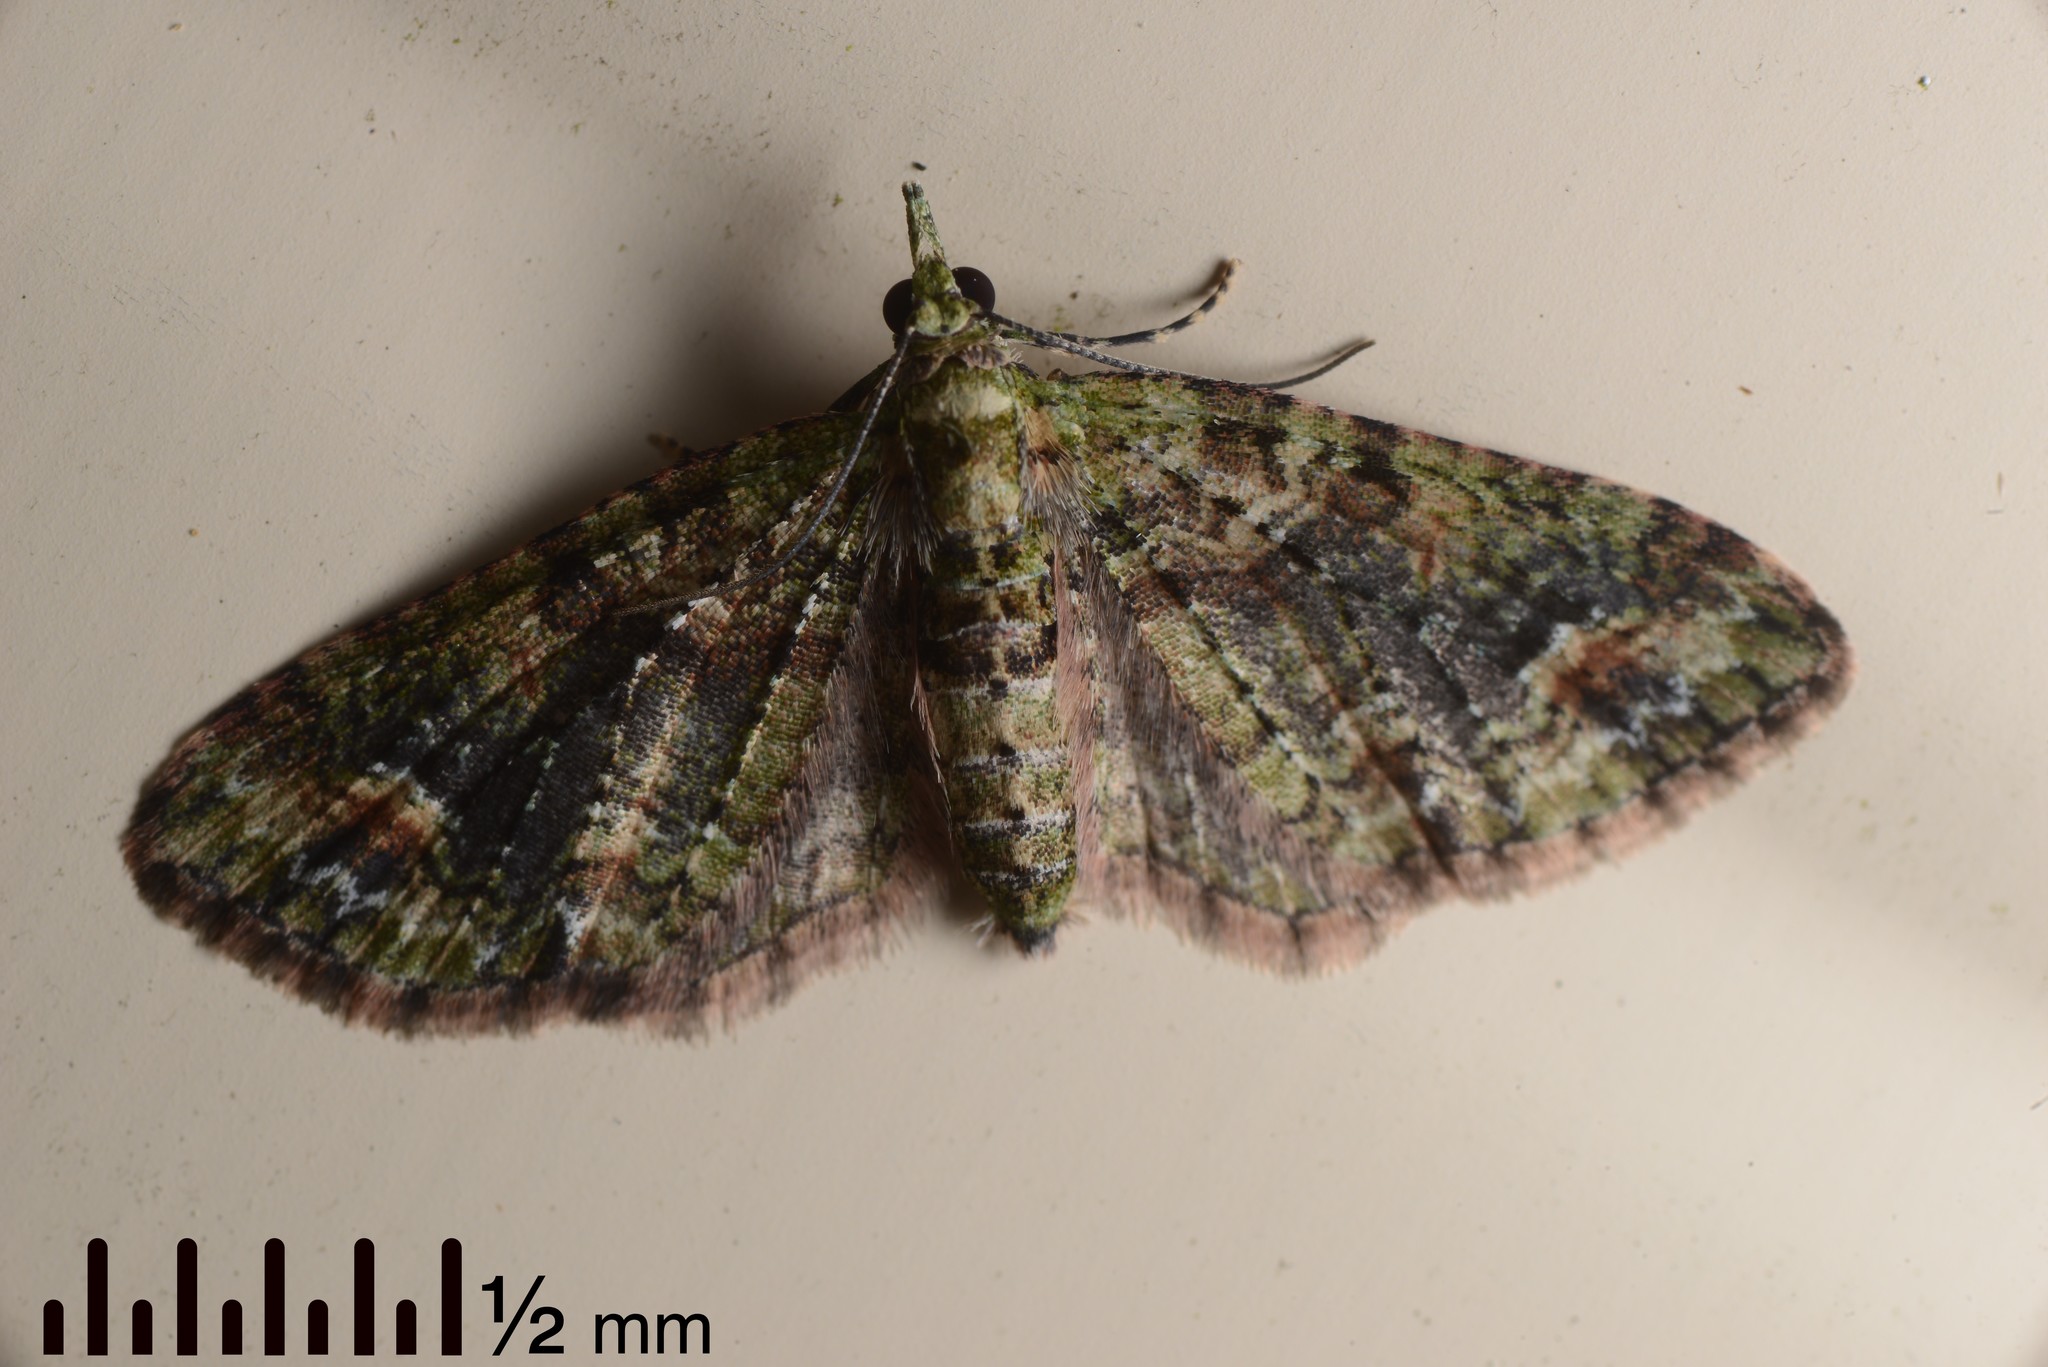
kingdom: Animalia
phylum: Arthropoda
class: Insecta
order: Lepidoptera
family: Geometridae
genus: Idaea
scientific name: Idaea mutanda
